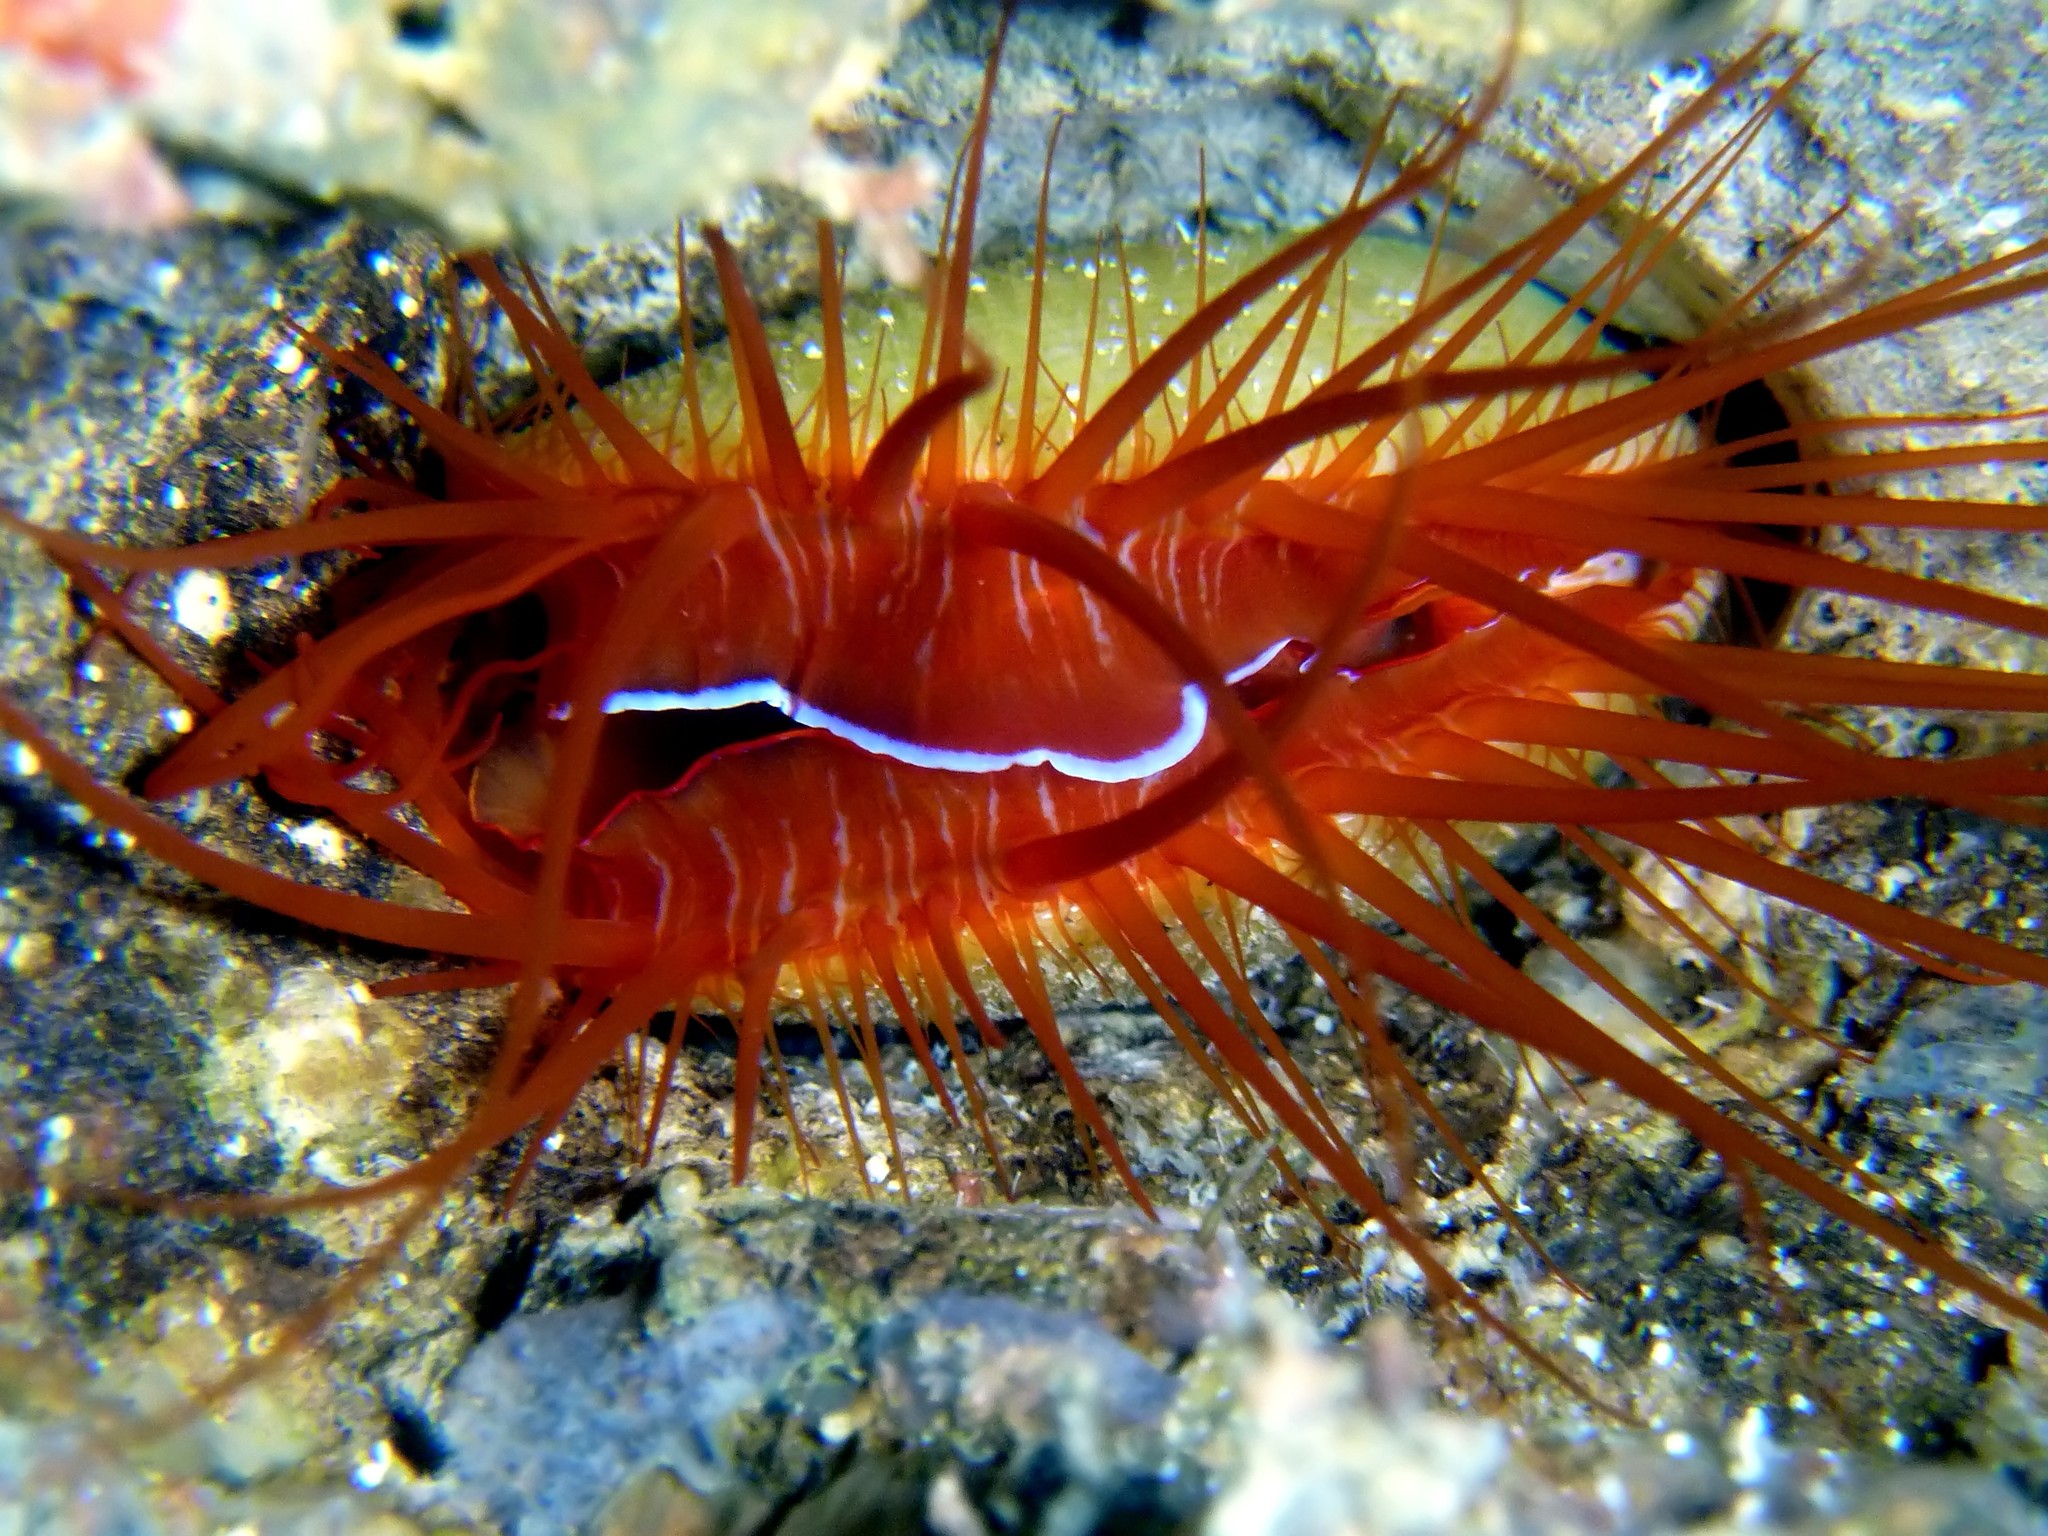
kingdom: Animalia
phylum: Mollusca
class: Bivalvia
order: Limida
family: Limidae
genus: Ctenoides
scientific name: Ctenoides ales
